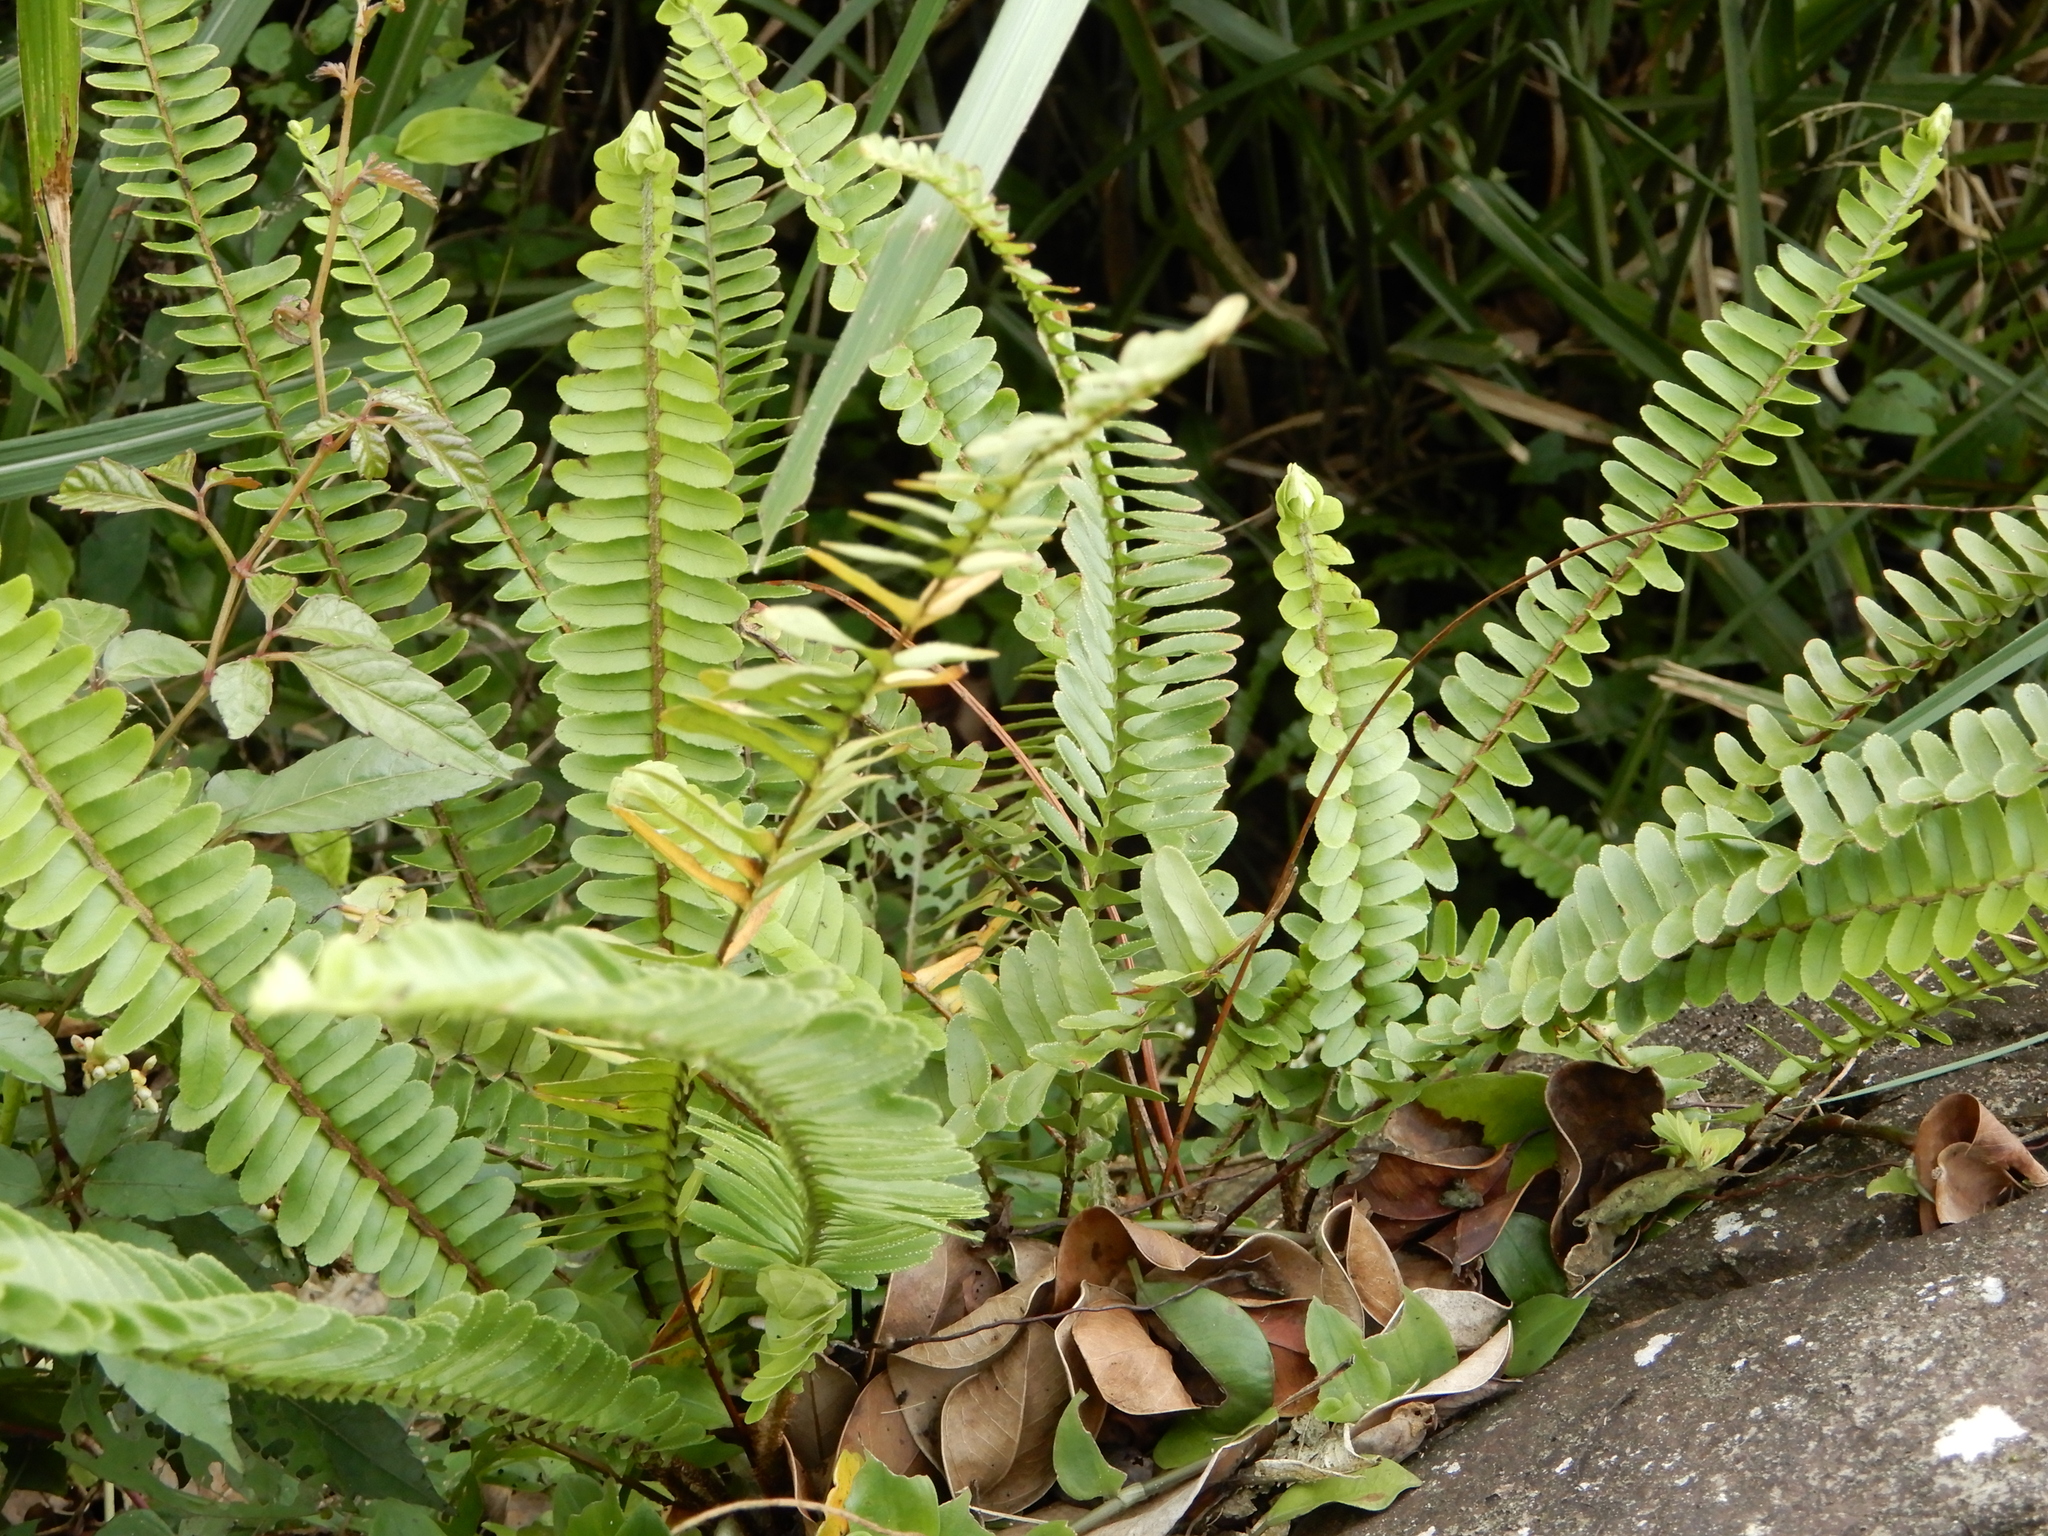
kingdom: Plantae
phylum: Tracheophyta
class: Polypodiopsida
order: Polypodiales
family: Nephrolepidaceae
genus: Nephrolepis
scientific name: Nephrolepis cordifolia
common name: Narrow swordfern
